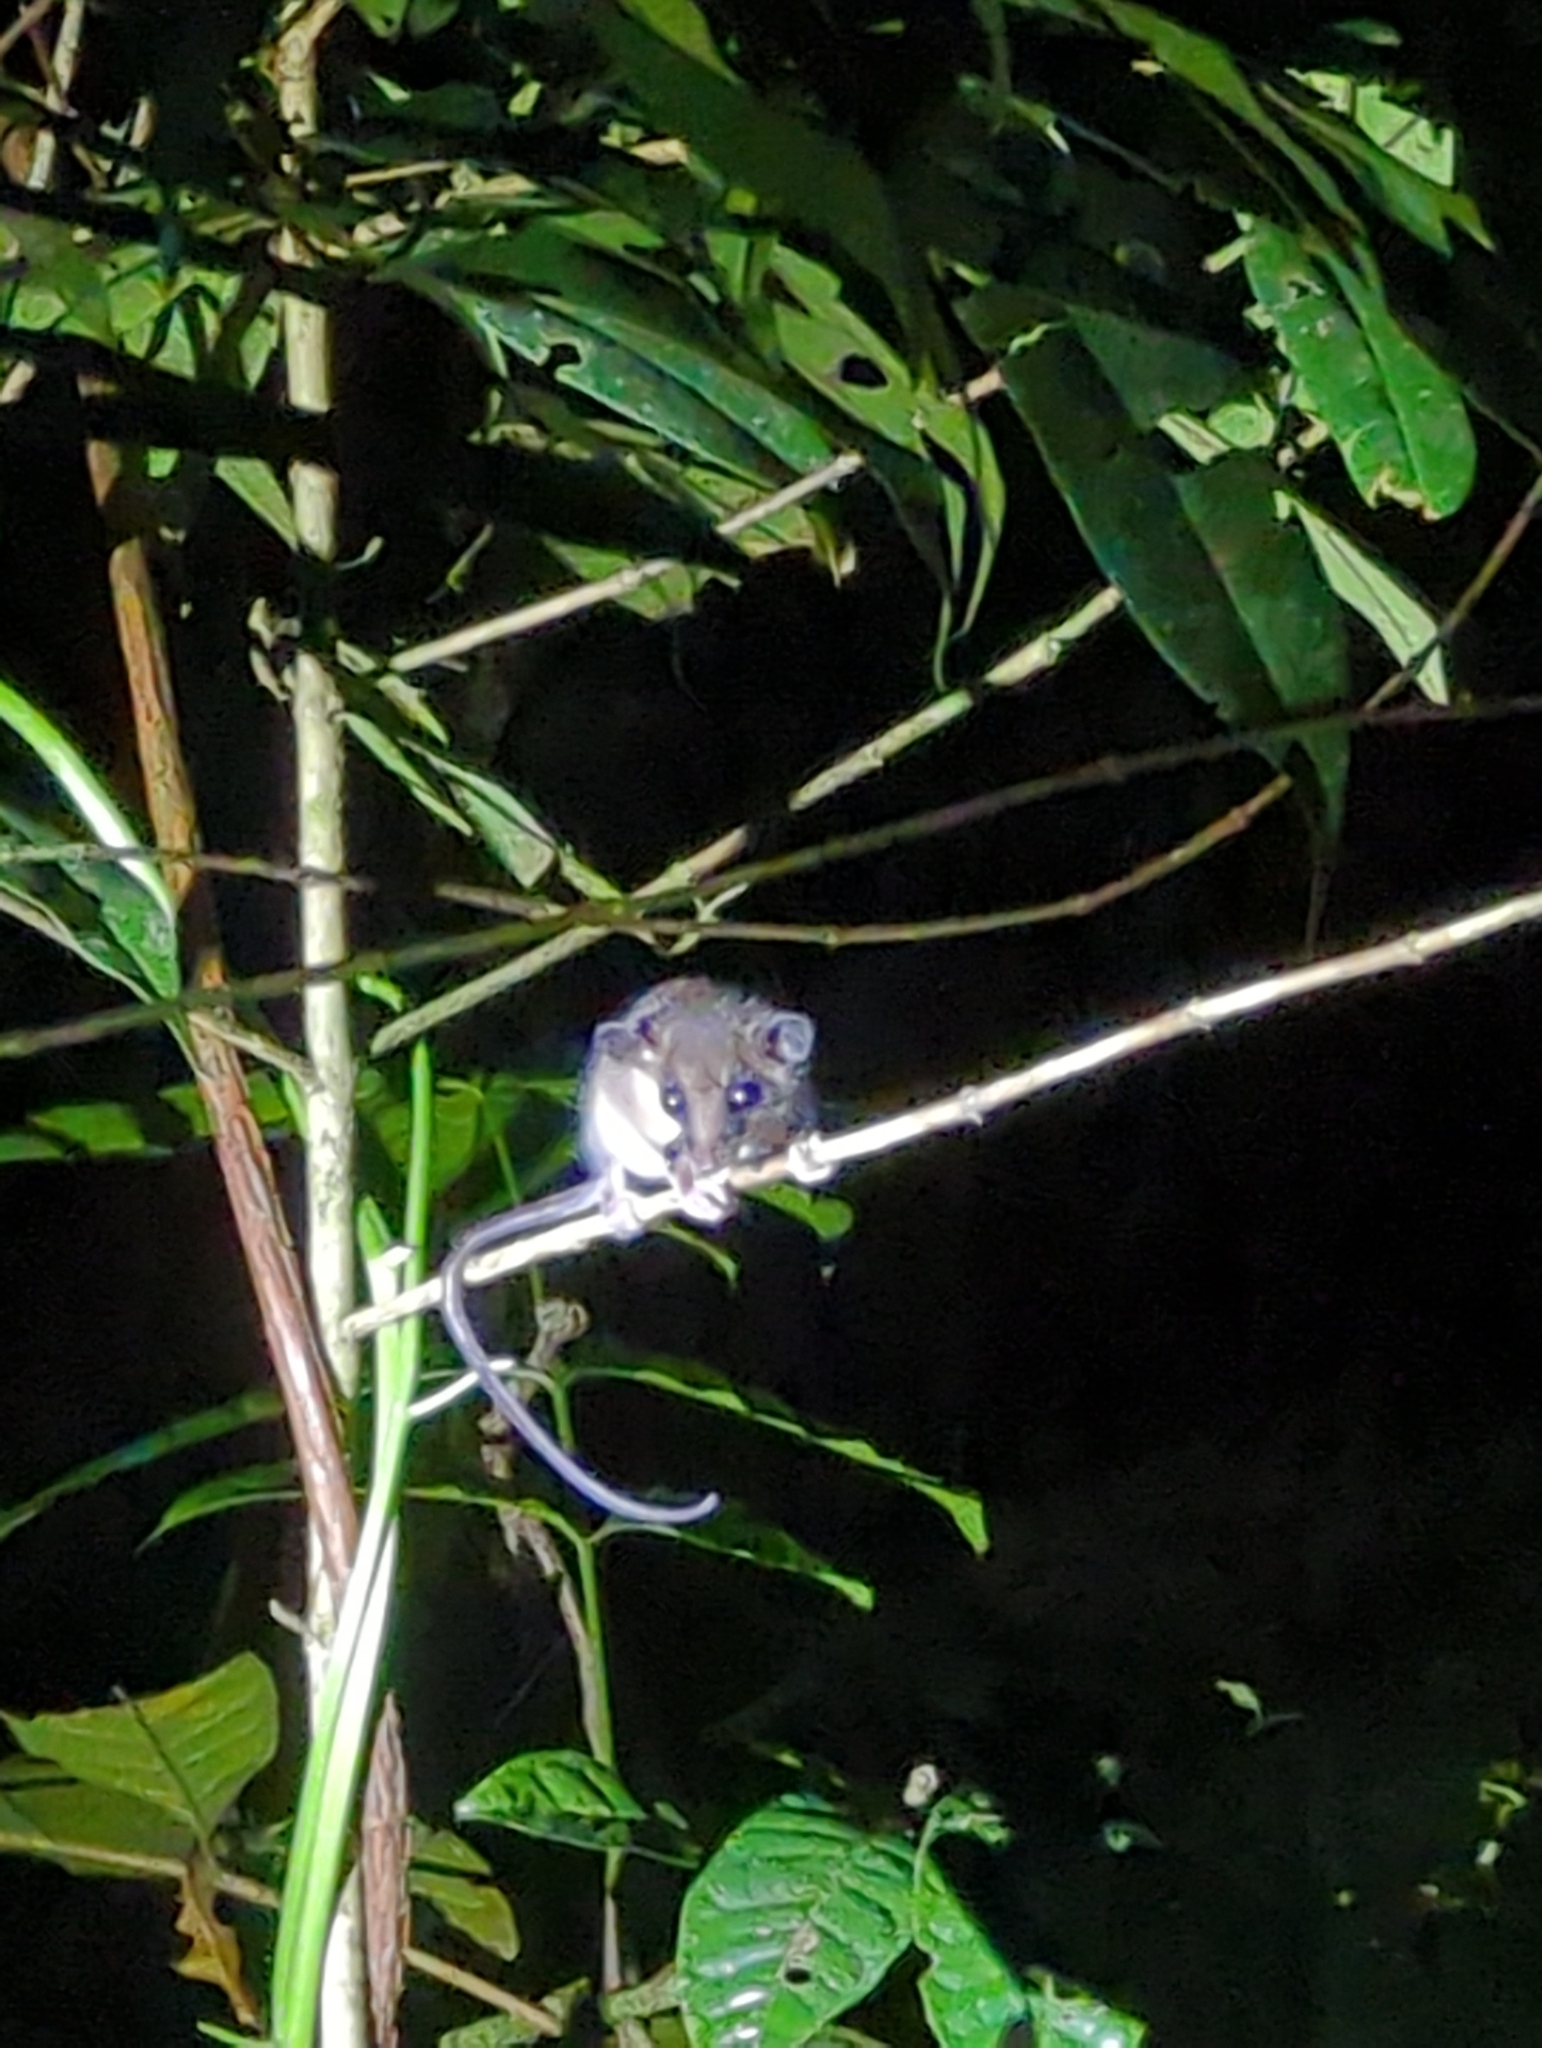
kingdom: Animalia
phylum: Chordata
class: Mammalia
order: Didelphimorphia
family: Didelphidae
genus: Marmosa
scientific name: Marmosa mexicana
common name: Mexican mouse opossum
